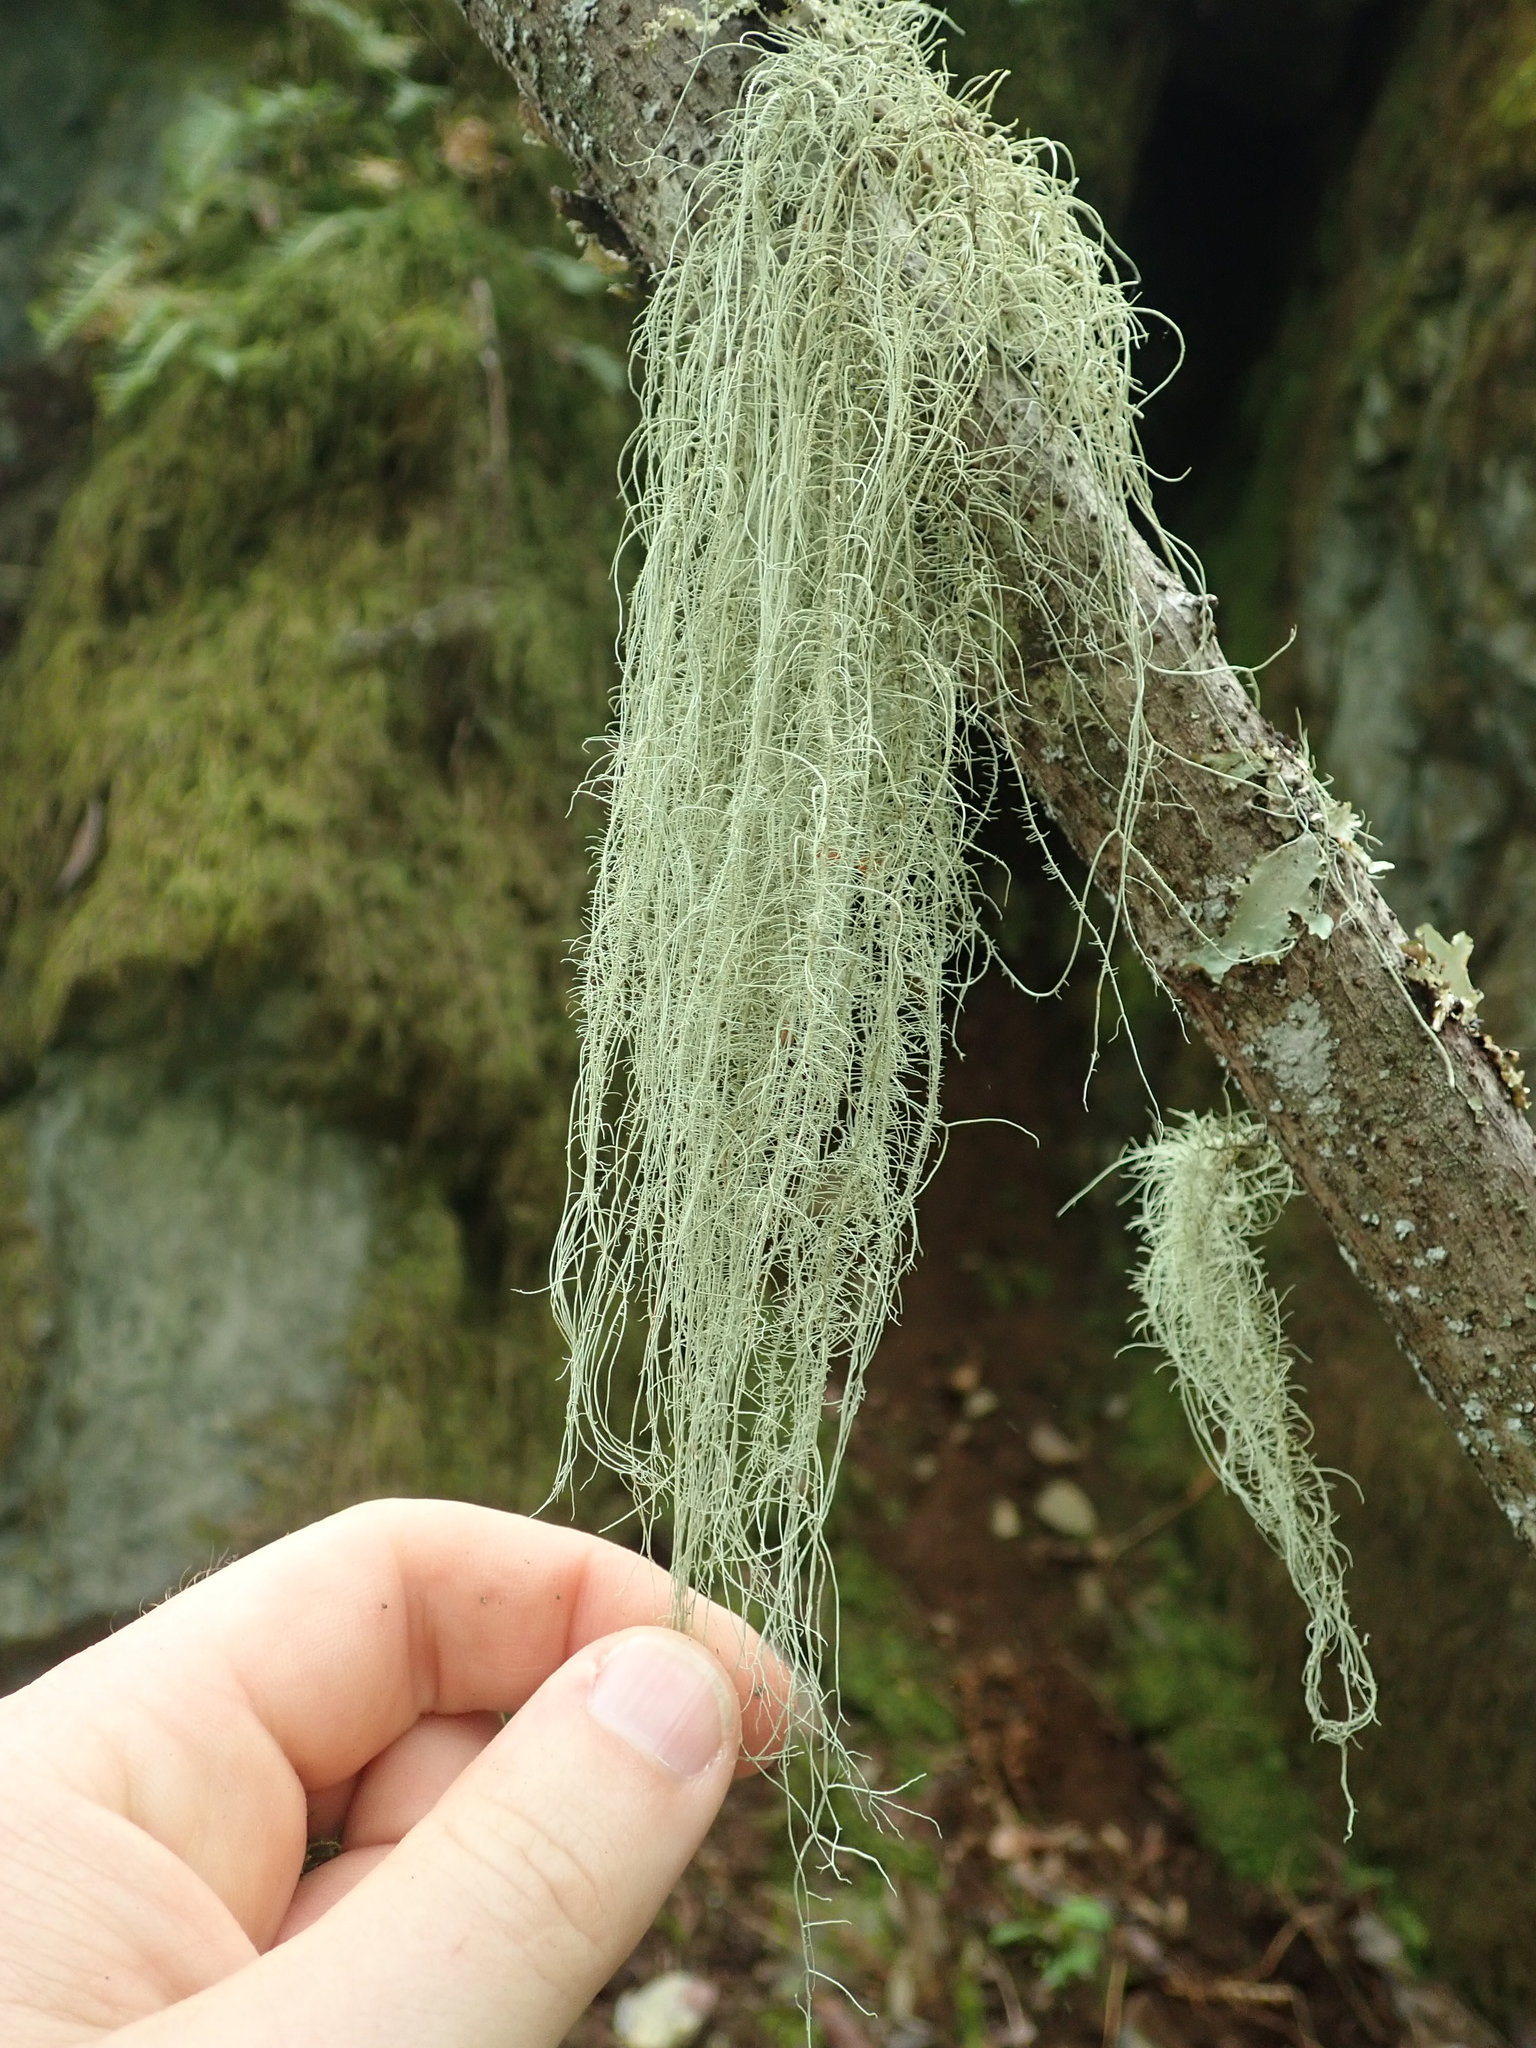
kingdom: Fungi
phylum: Ascomycota
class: Lecanoromycetes
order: Lecanorales
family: Parmeliaceae
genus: Usnea
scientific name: Usnea dasopoga
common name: Fishbone beard lichen
